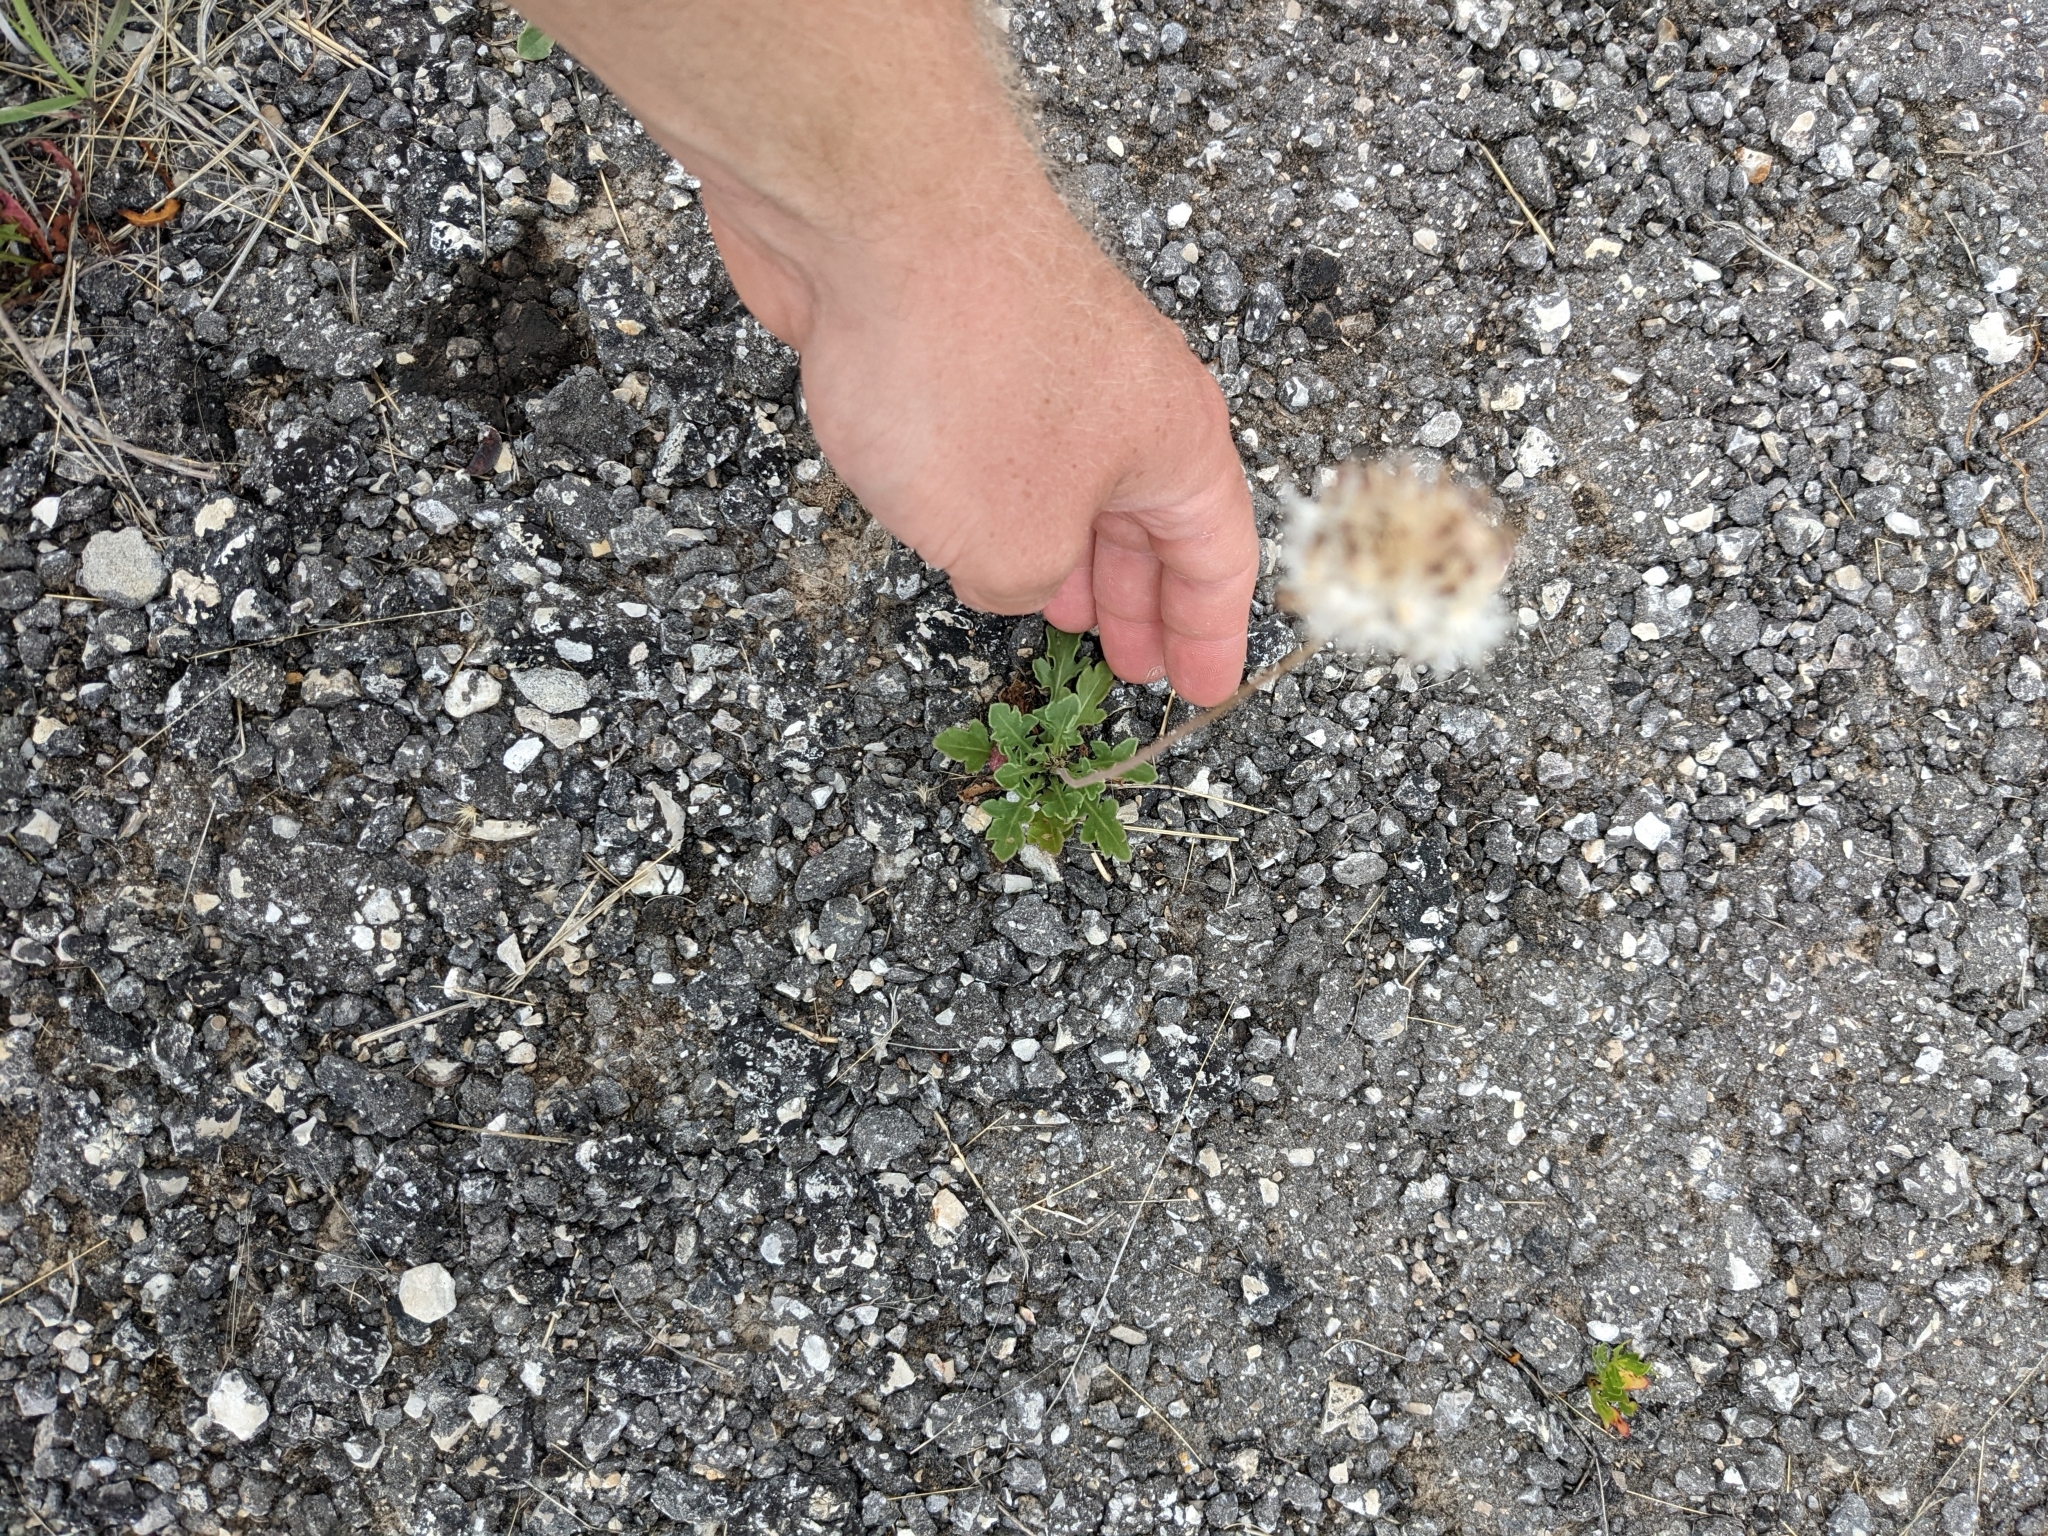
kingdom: Plantae
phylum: Tracheophyta
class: Magnoliopsida
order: Asterales
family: Asteraceae
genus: Gaillardia
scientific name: Gaillardia suavis
